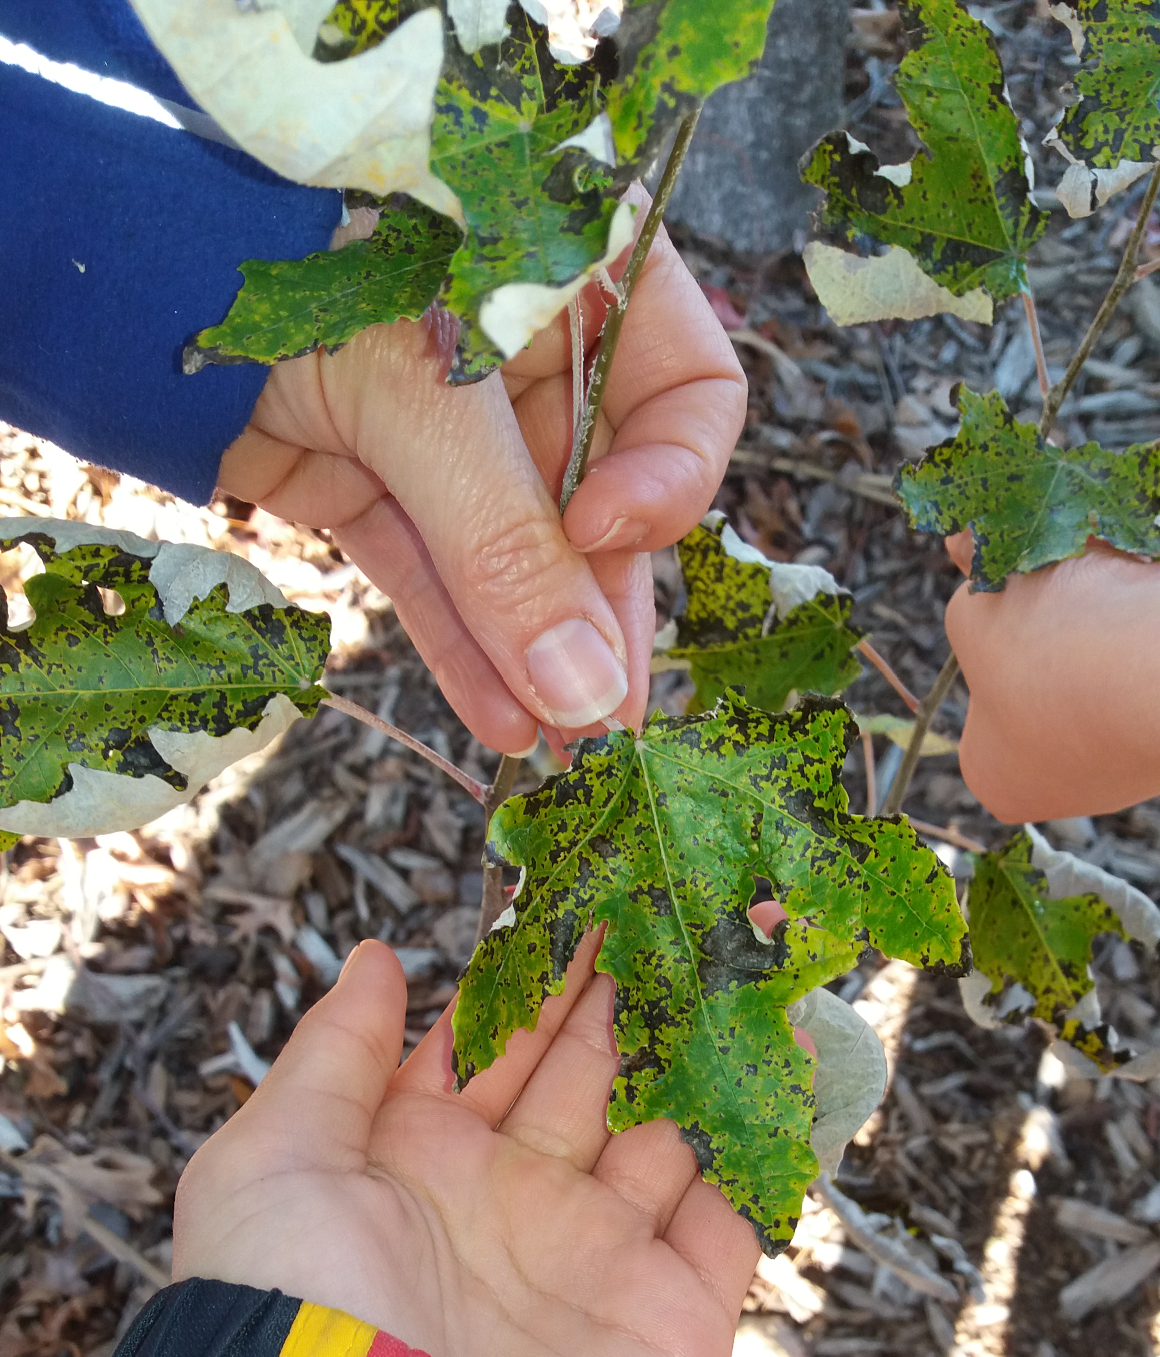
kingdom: Plantae
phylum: Tracheophyta
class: Magnoliopsida
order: Malpighiales
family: Salicaceae
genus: Populus
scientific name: Populus alba
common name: White poplar
